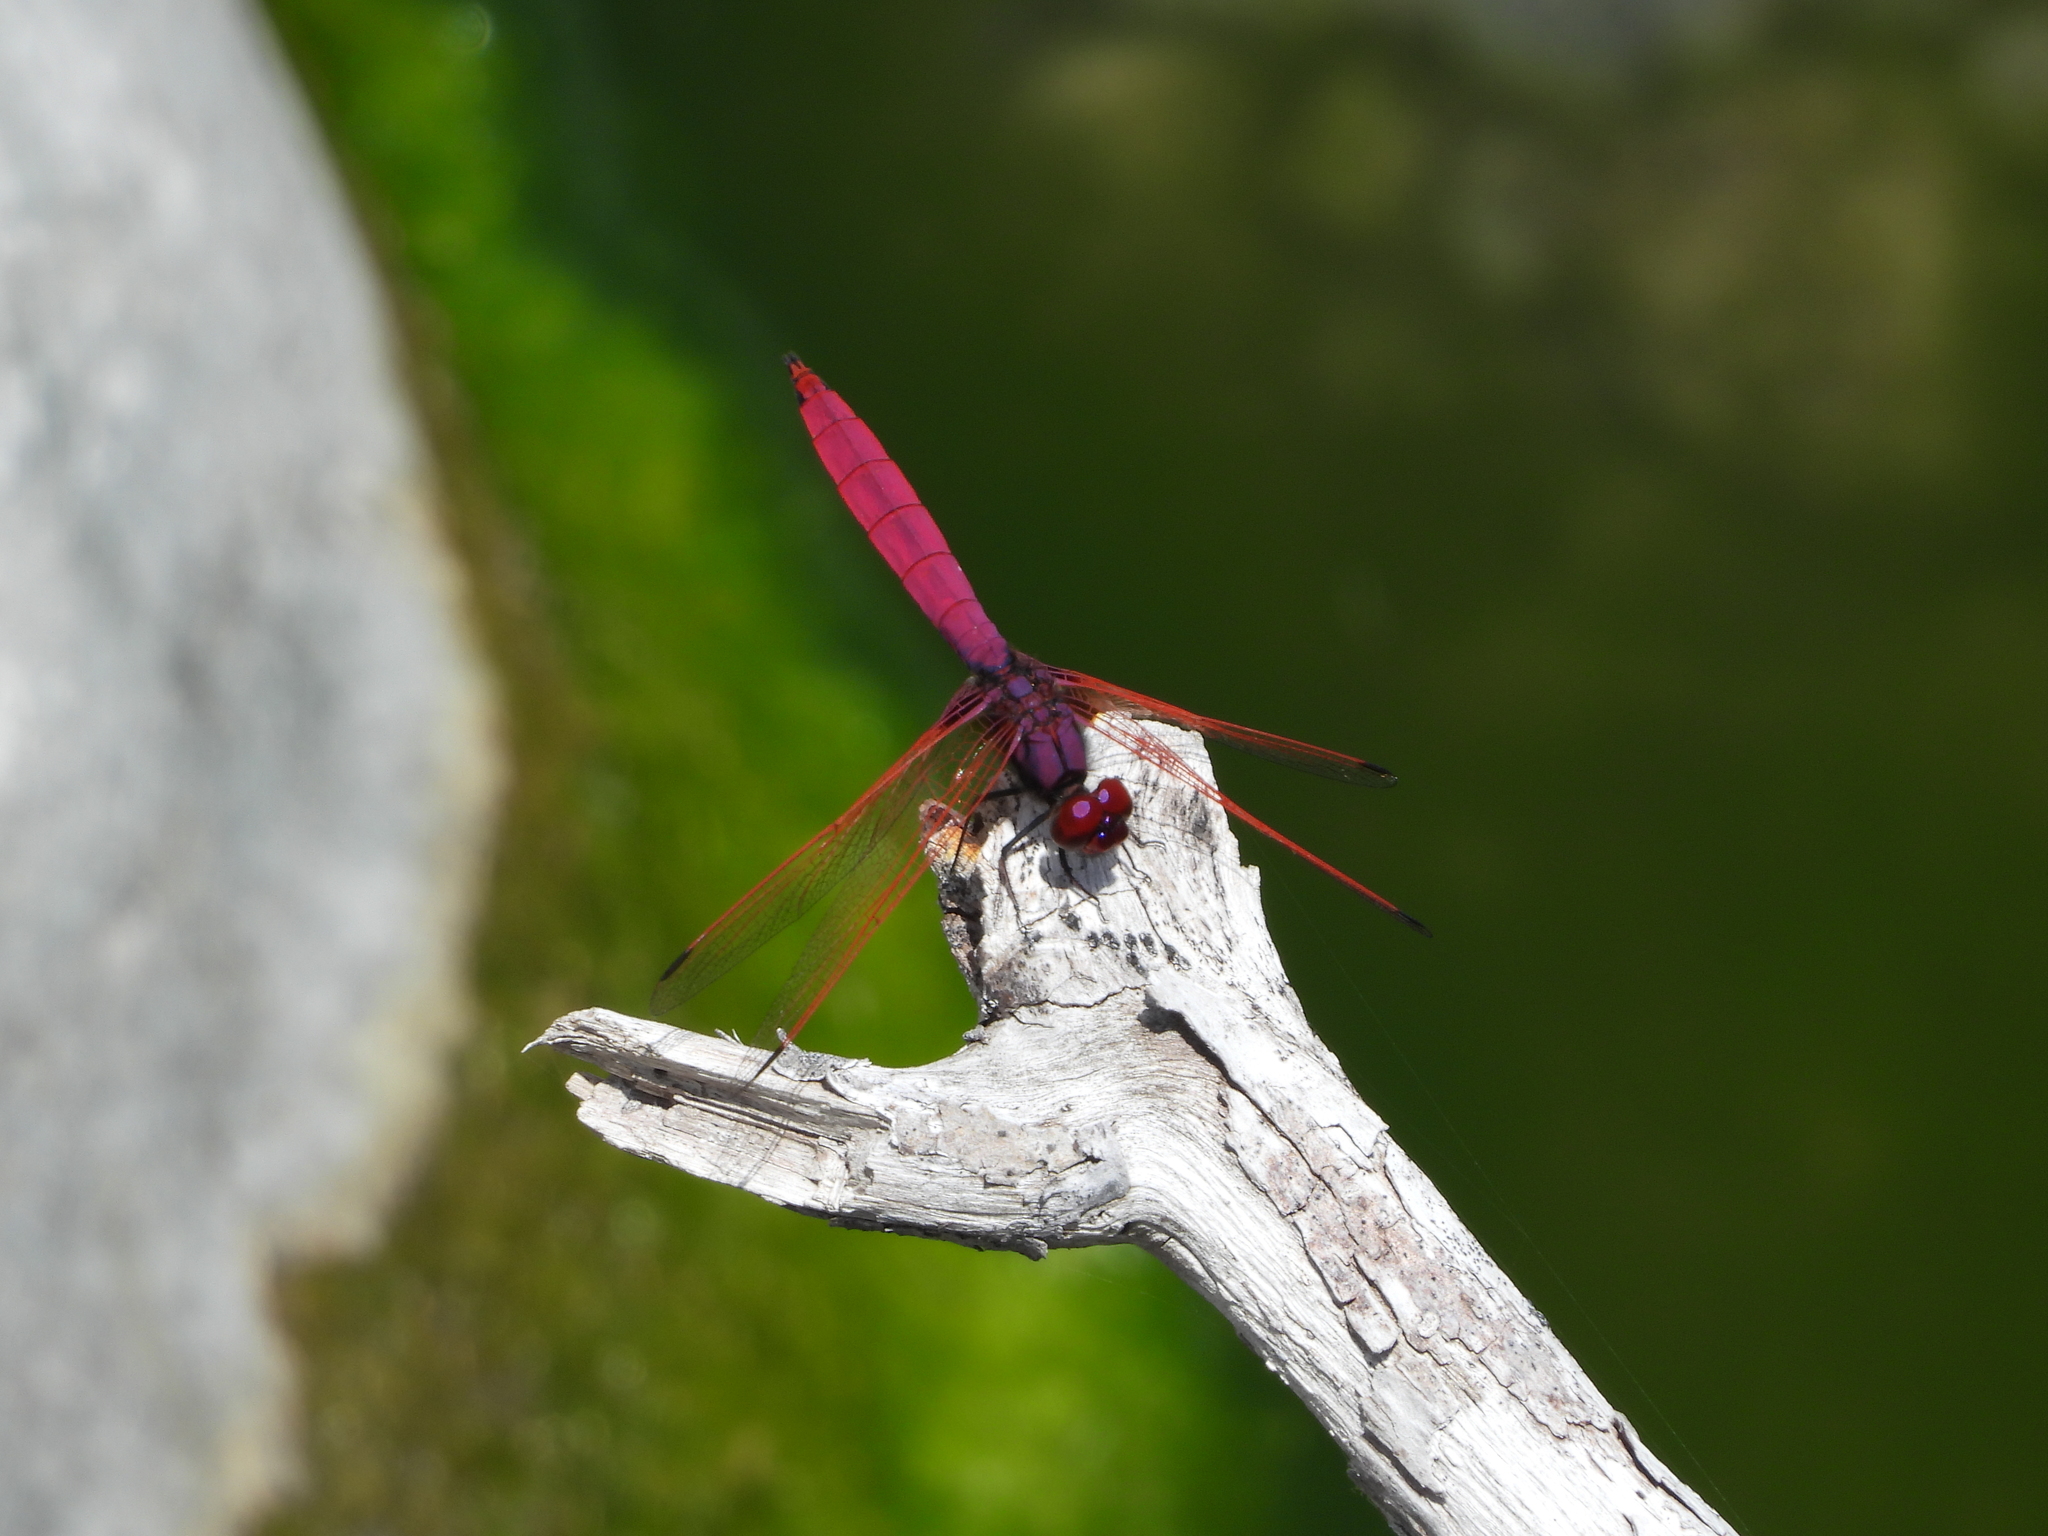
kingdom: Animalia
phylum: Arthropoda
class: Insecta
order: Odonata
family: Libellulidae
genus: Trithemis
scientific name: Trithemis aurora
